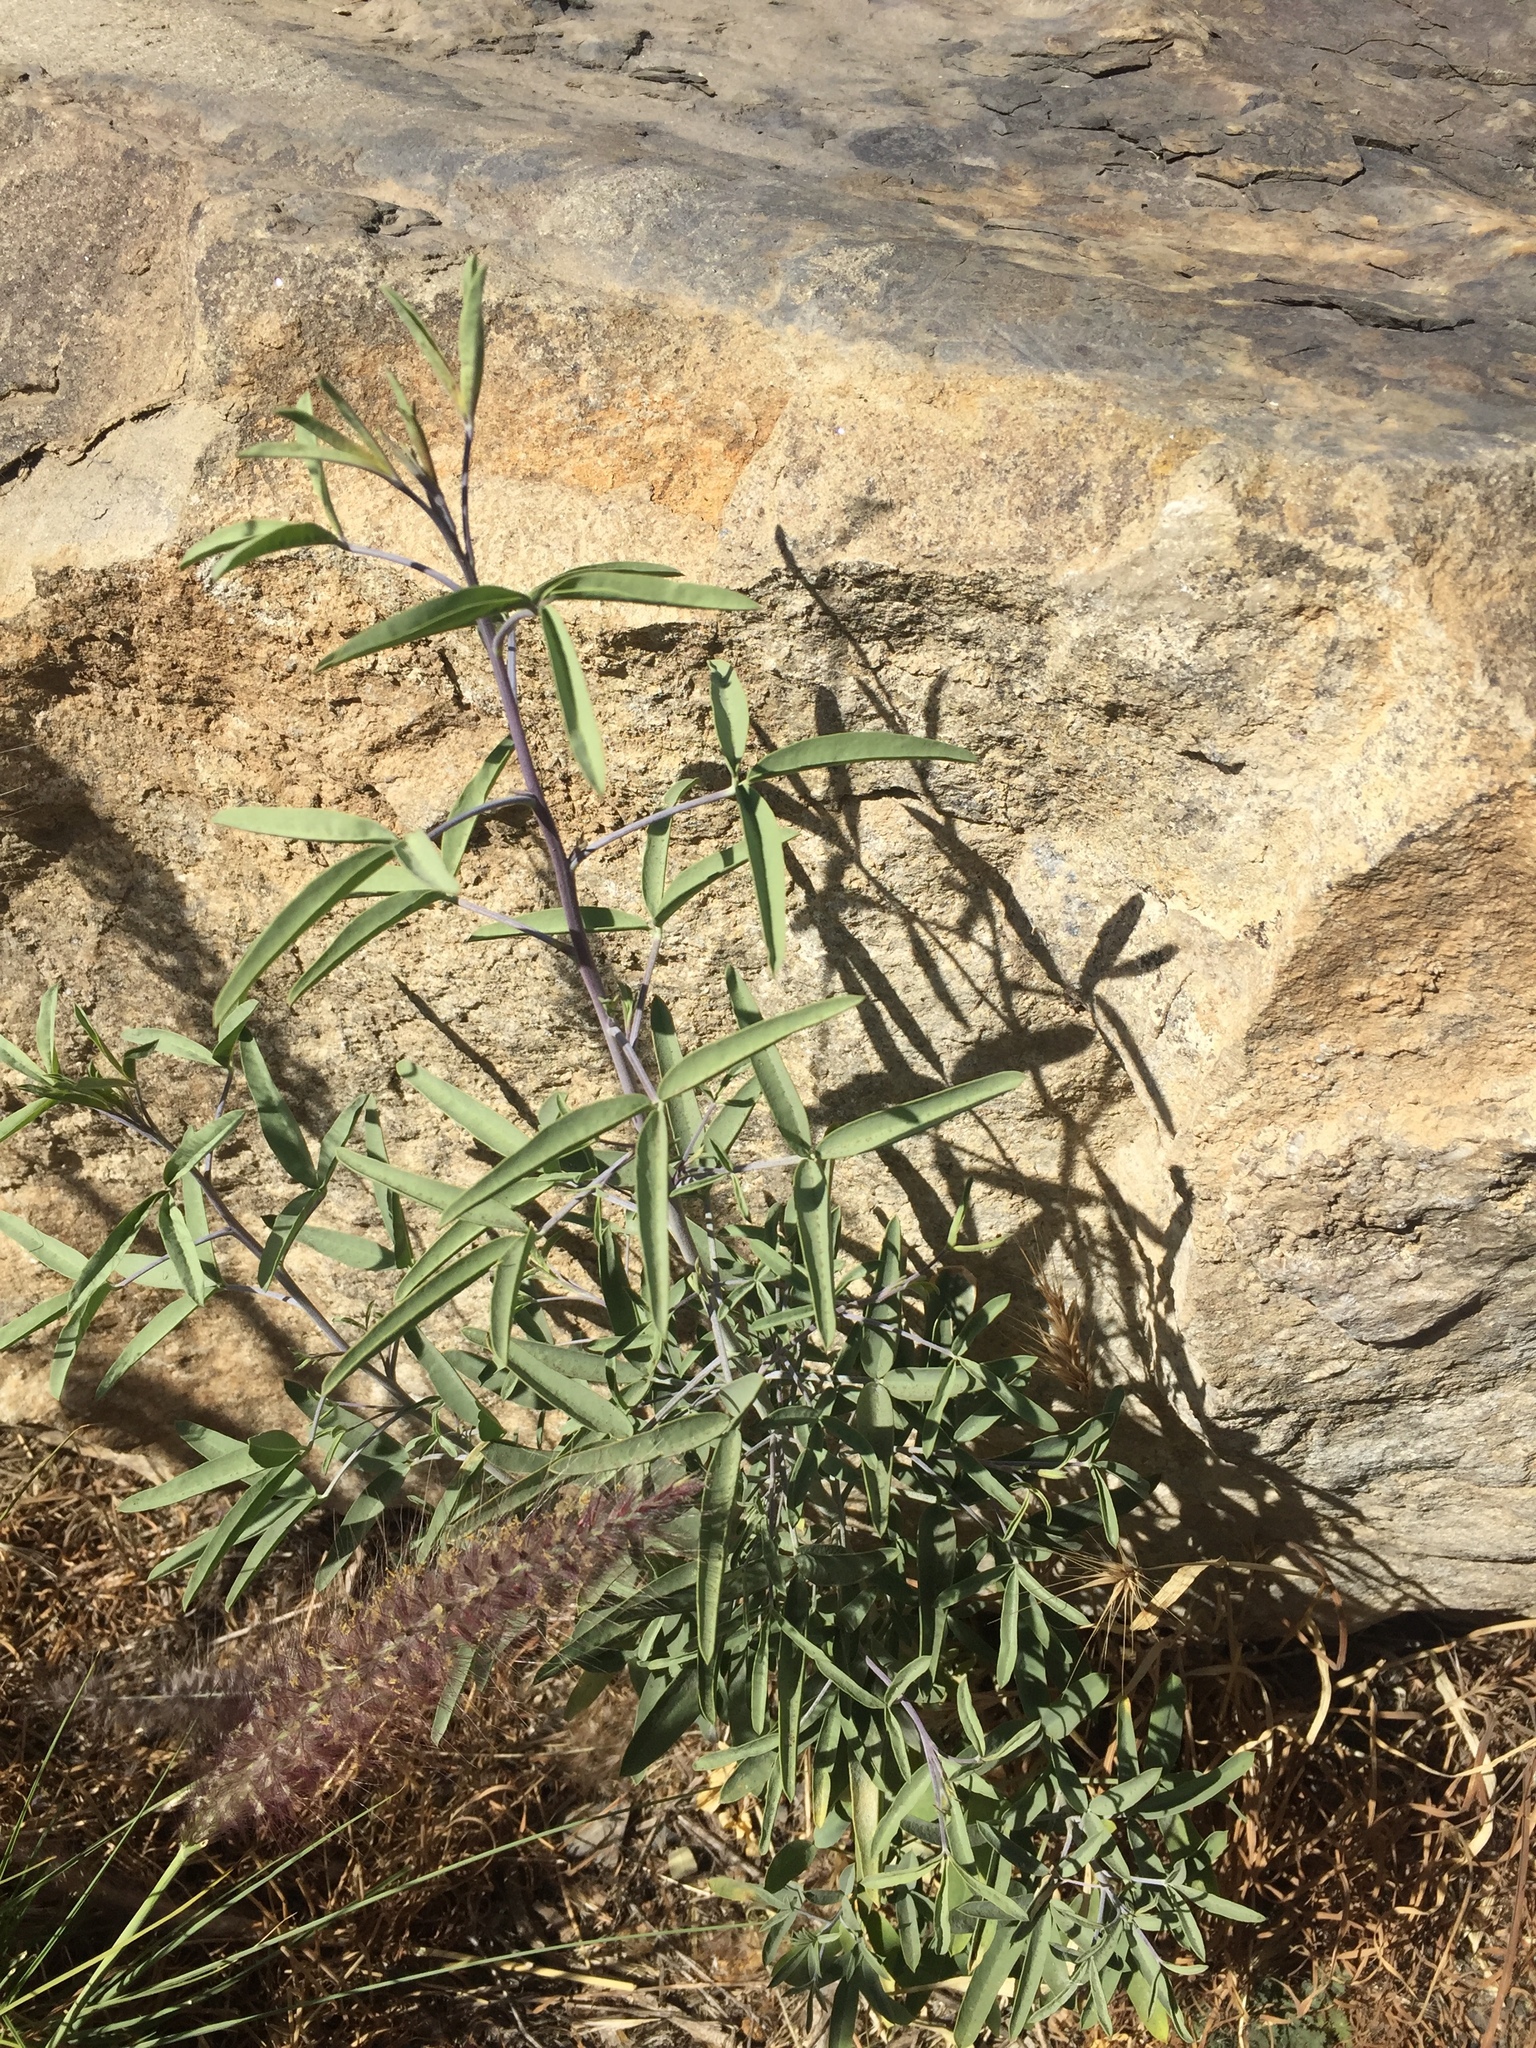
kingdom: Plantae
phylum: Tracheophyta
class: Magnoliopsida
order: Brassicales
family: Cleomaceae
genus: Cleomella
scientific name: Cleomella arborea
